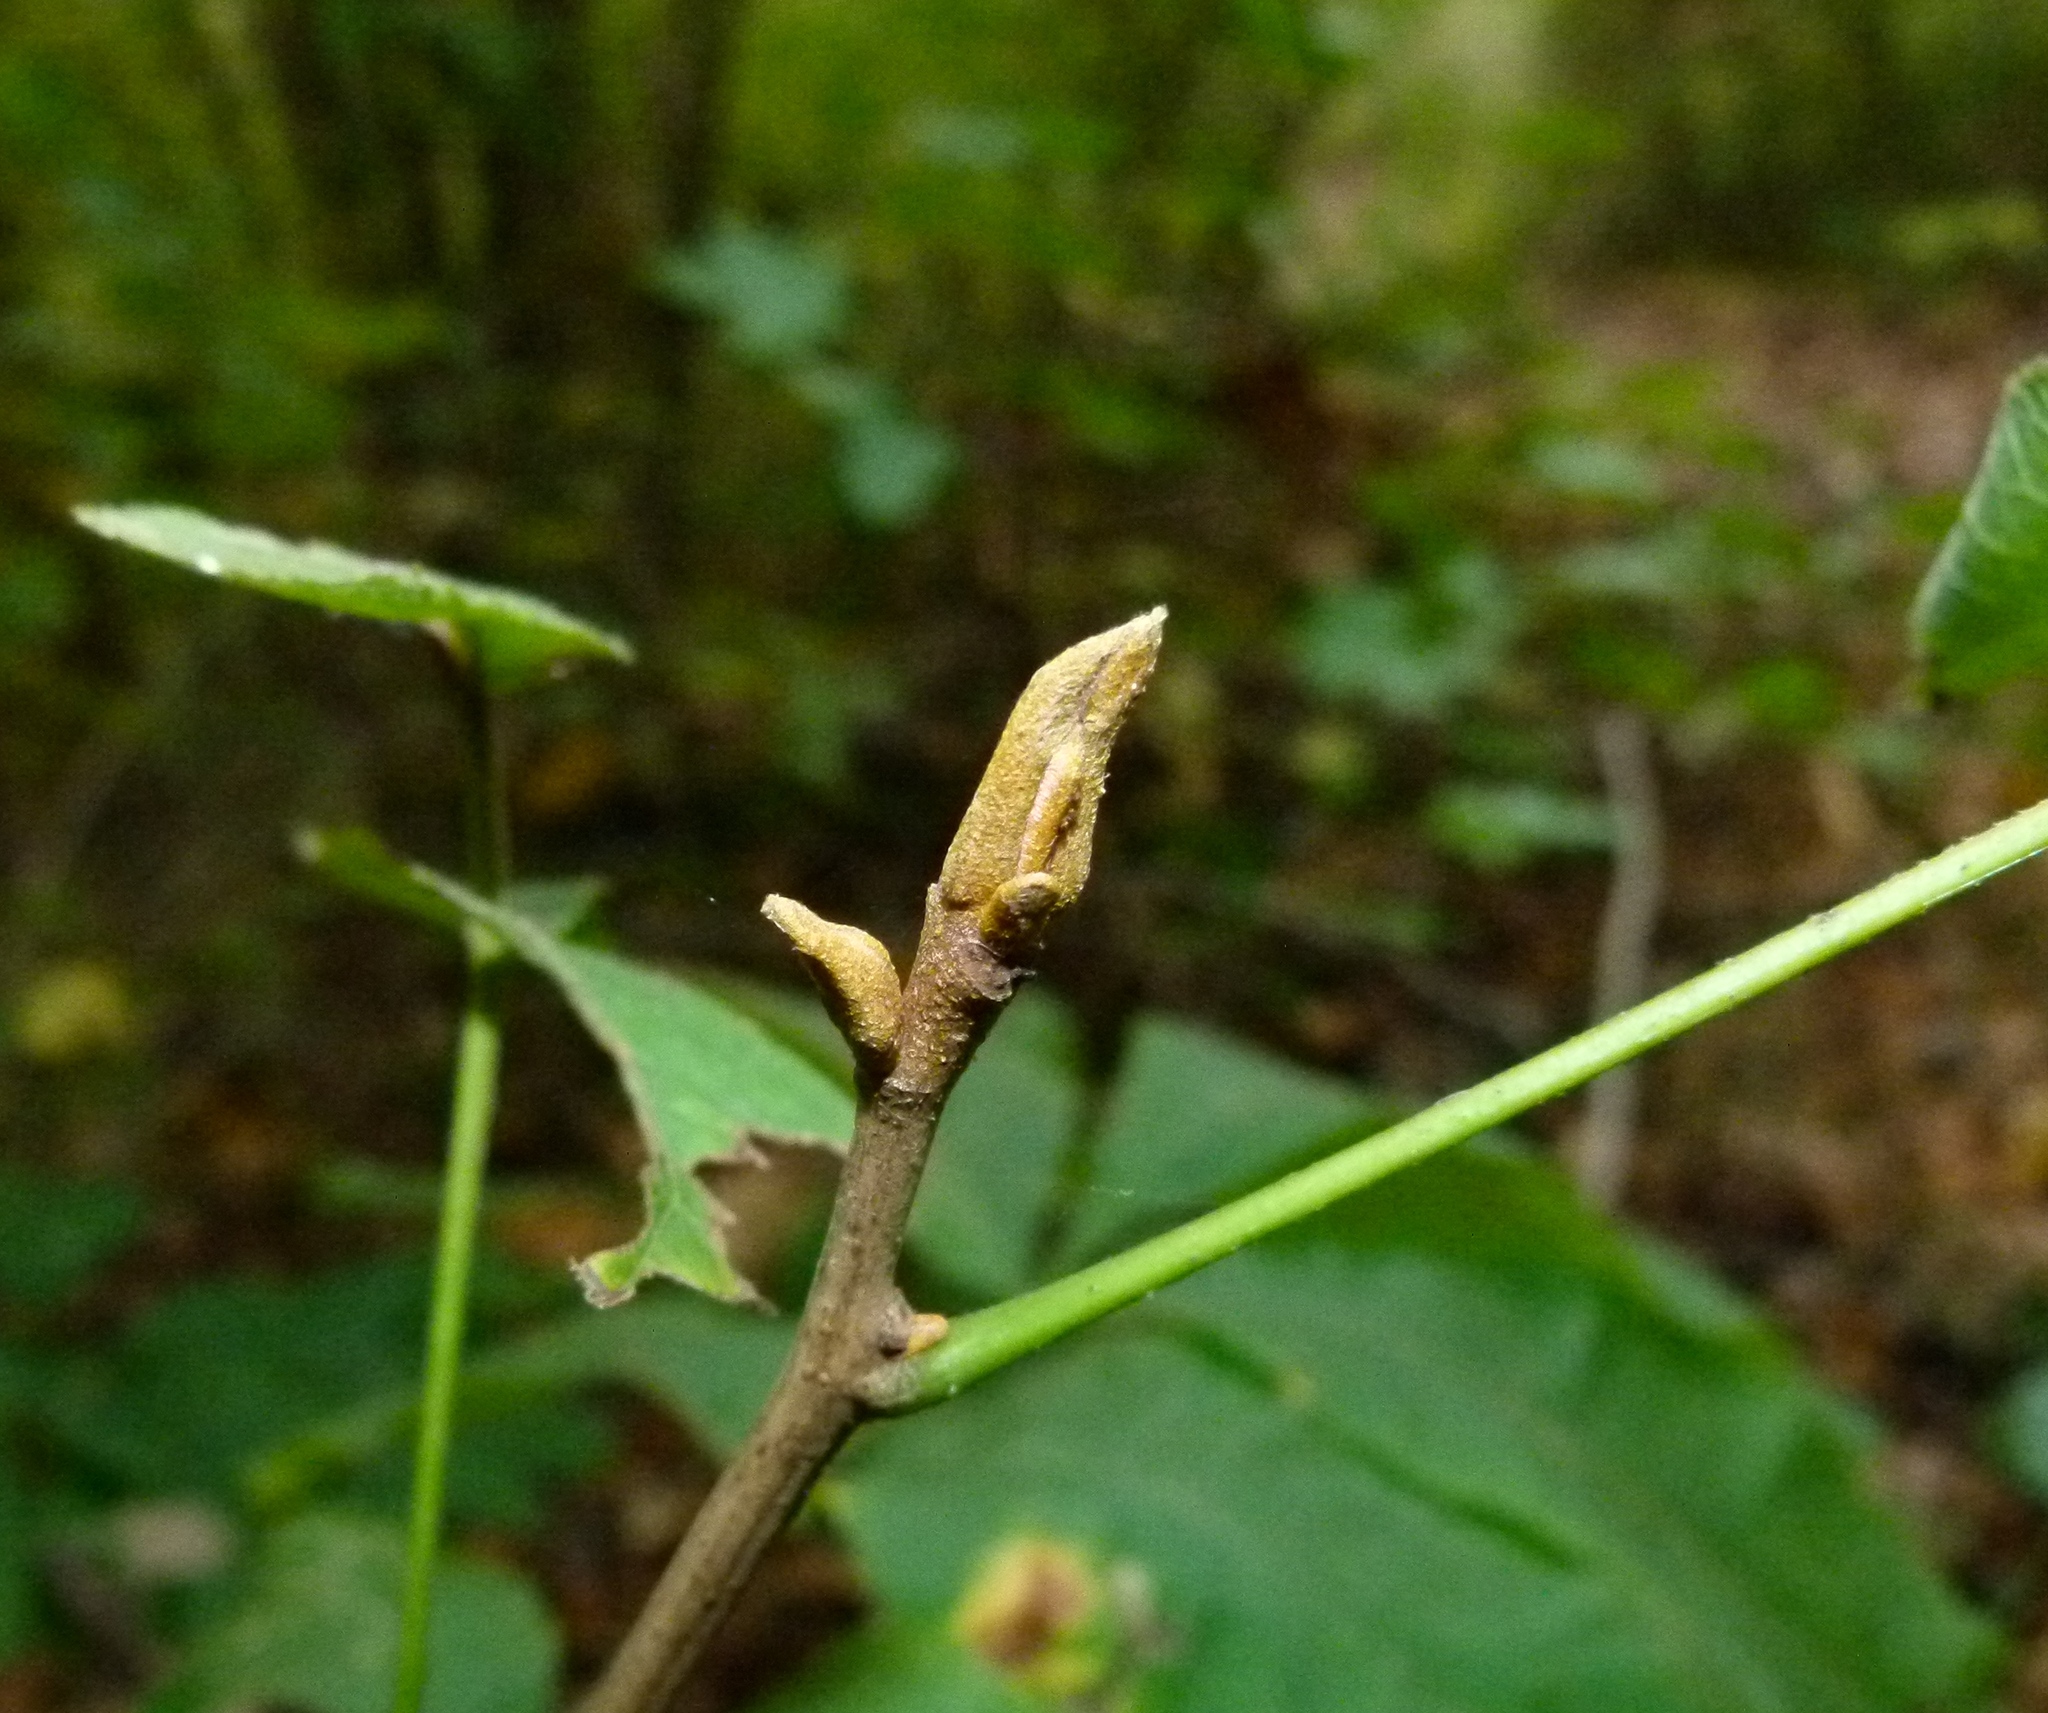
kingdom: Plantae
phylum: Tracheophyta
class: Magnoliopsida
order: Fagales
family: Juglandaceae
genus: Carya
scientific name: Carya cordiformis
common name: Bitternut hickory
